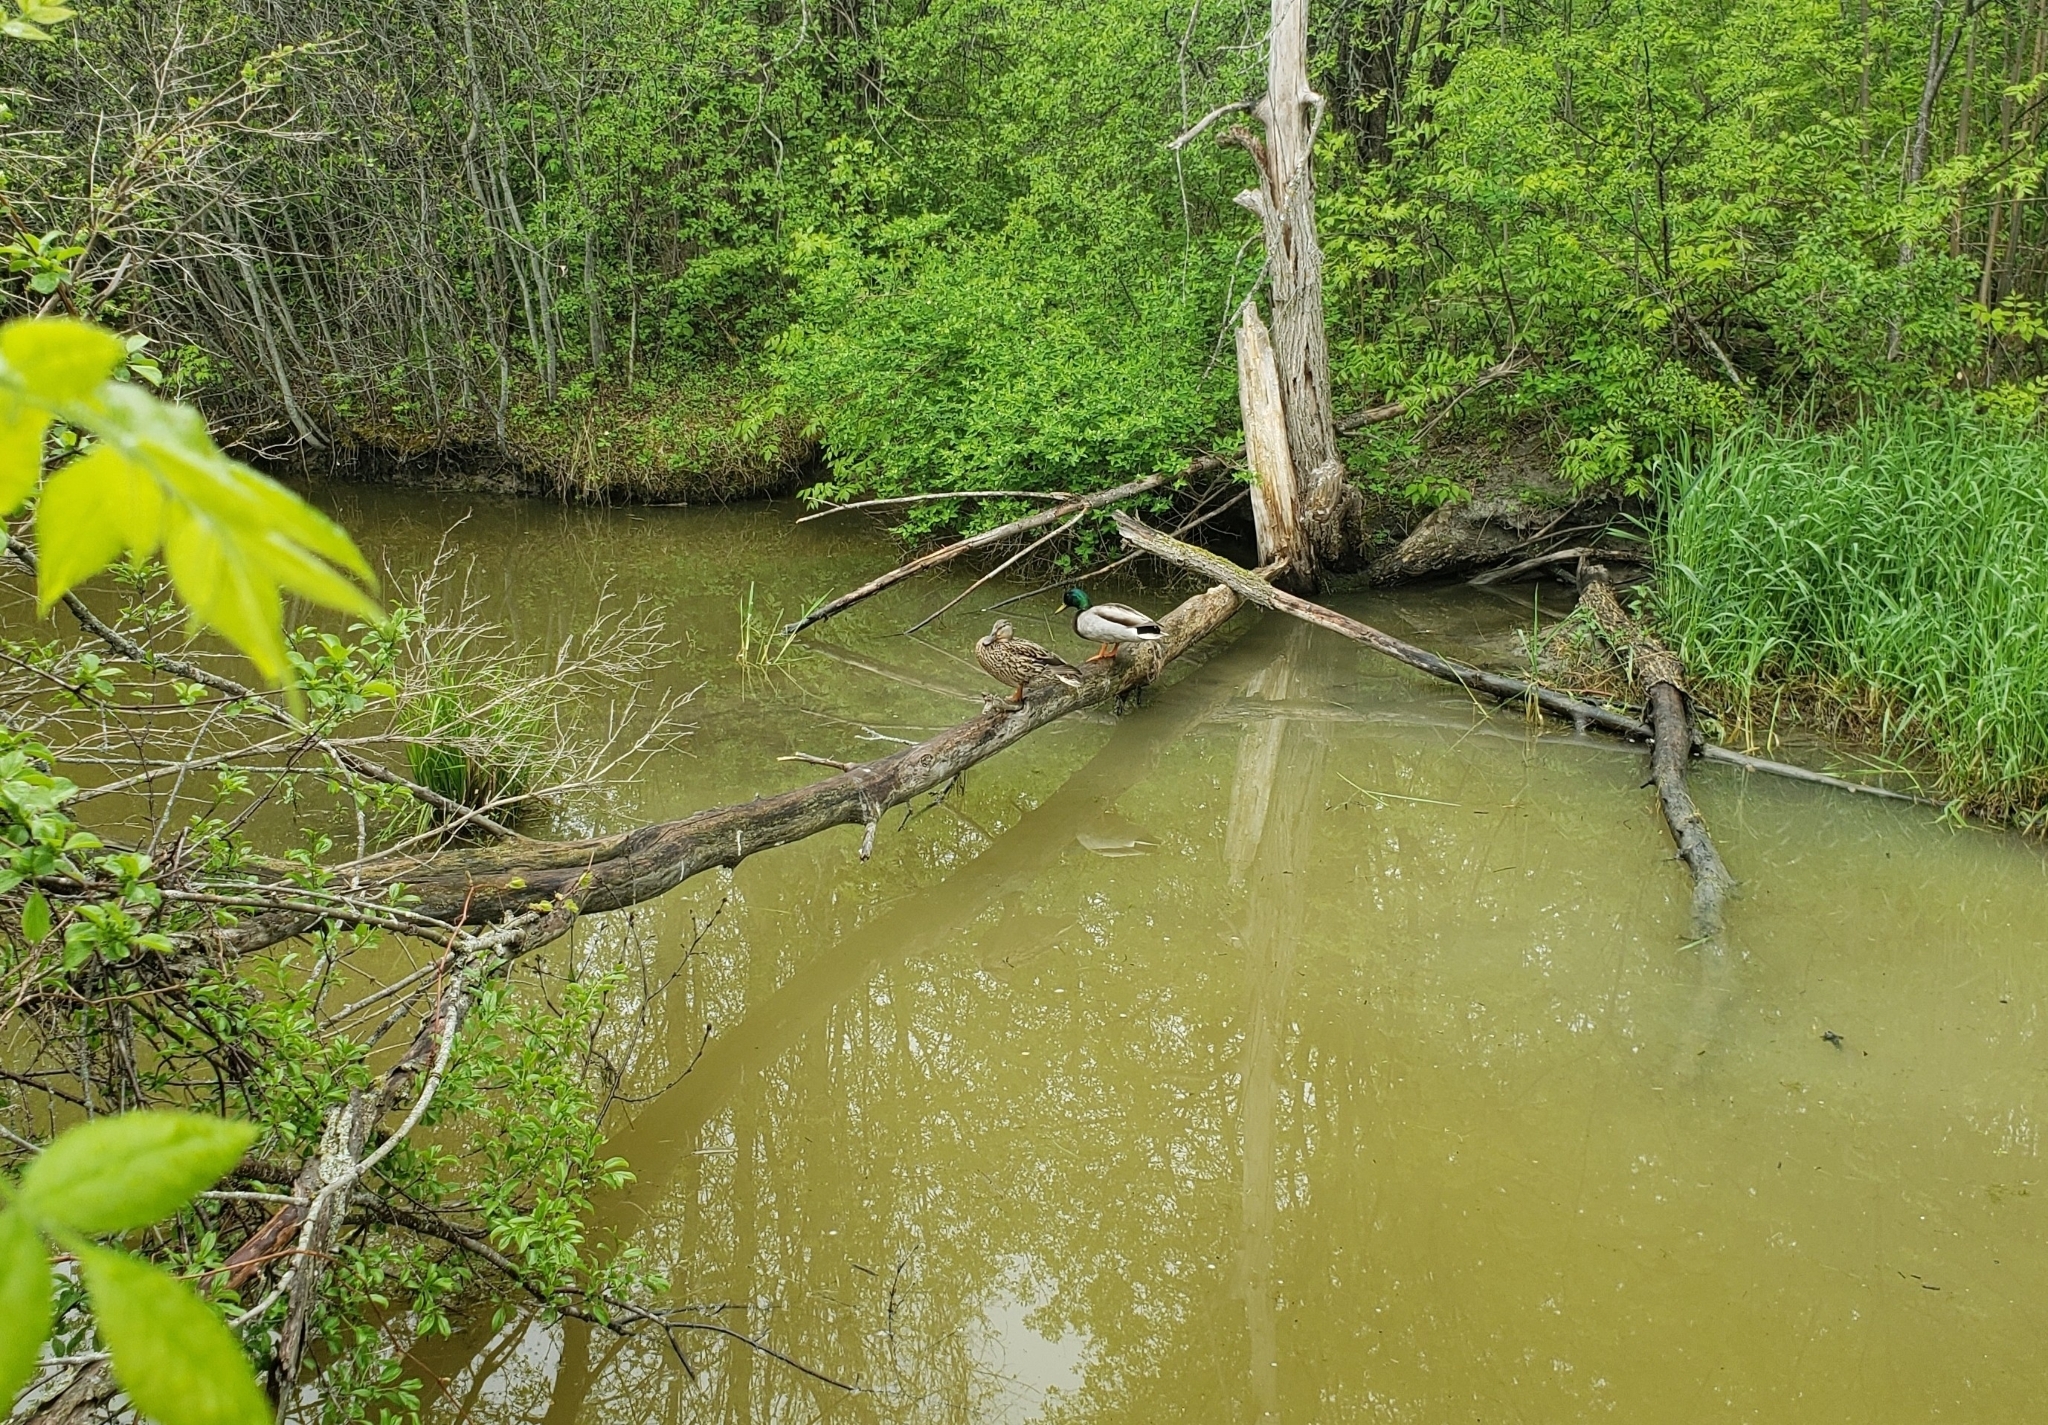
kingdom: Animalia
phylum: Chordata
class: Aves
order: Anseriformes
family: Anatidae
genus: Anas
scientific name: Anas platyrhynchos
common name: Mallard
